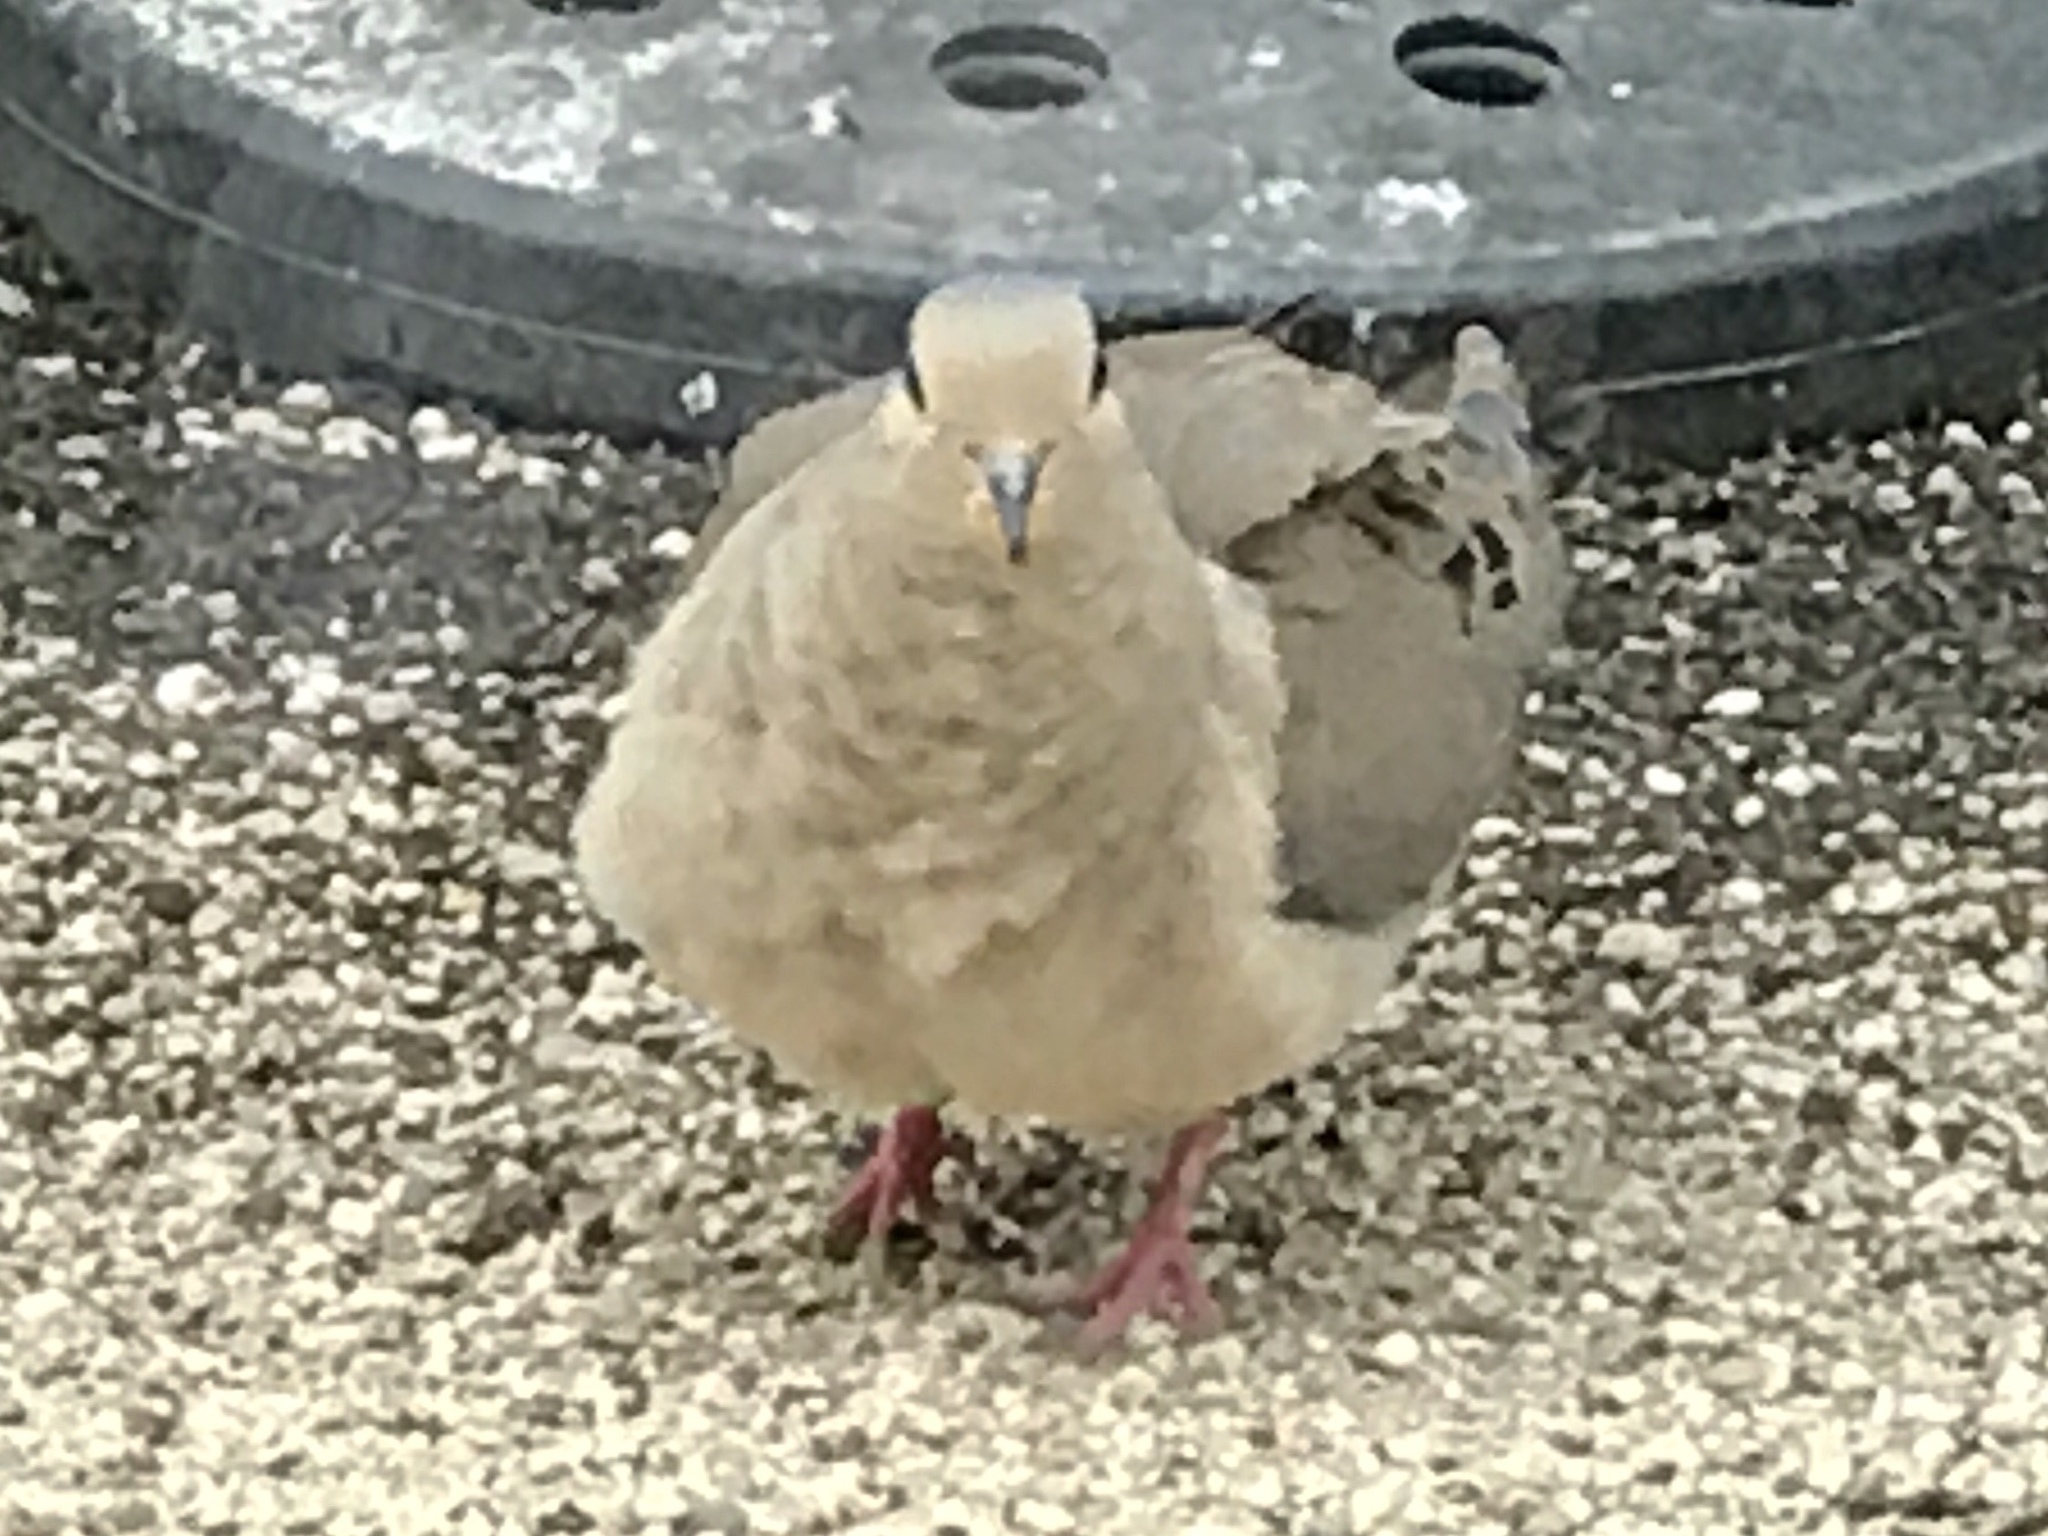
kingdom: Animalia
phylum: Chordata
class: Aves
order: Columbiformes
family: Columbidae
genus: Zenaida
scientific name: Zenaida macroura
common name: Mourning dove
